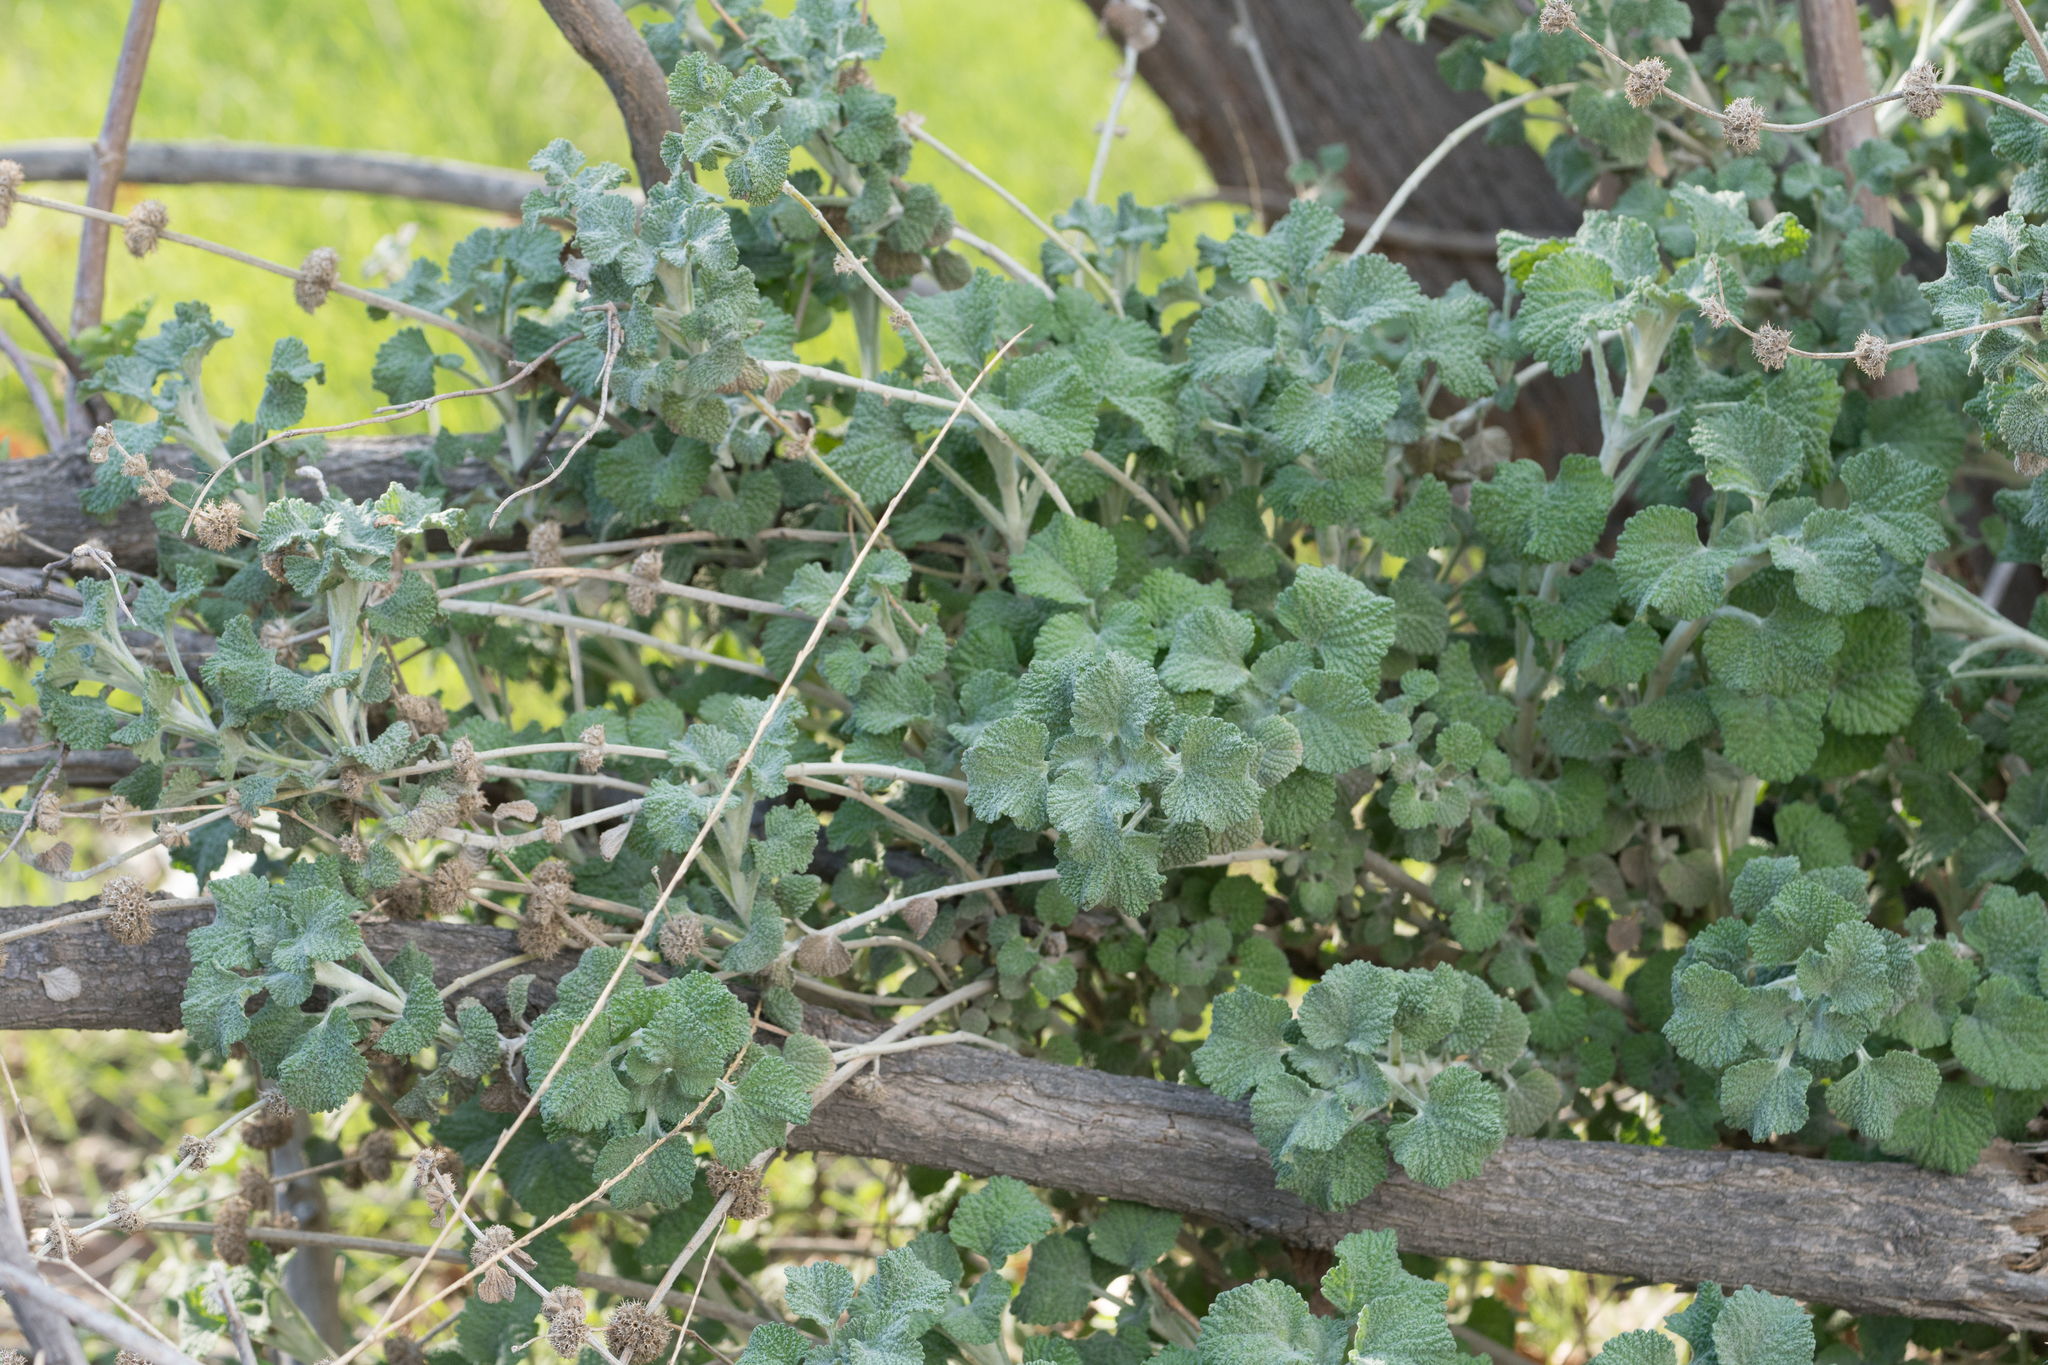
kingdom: Plantae
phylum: Tracheophyta
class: Magnoliopsida
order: Lamiales
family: Lamiaceae
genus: Marrubium
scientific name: Marrubium vulgare
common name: Horehound
